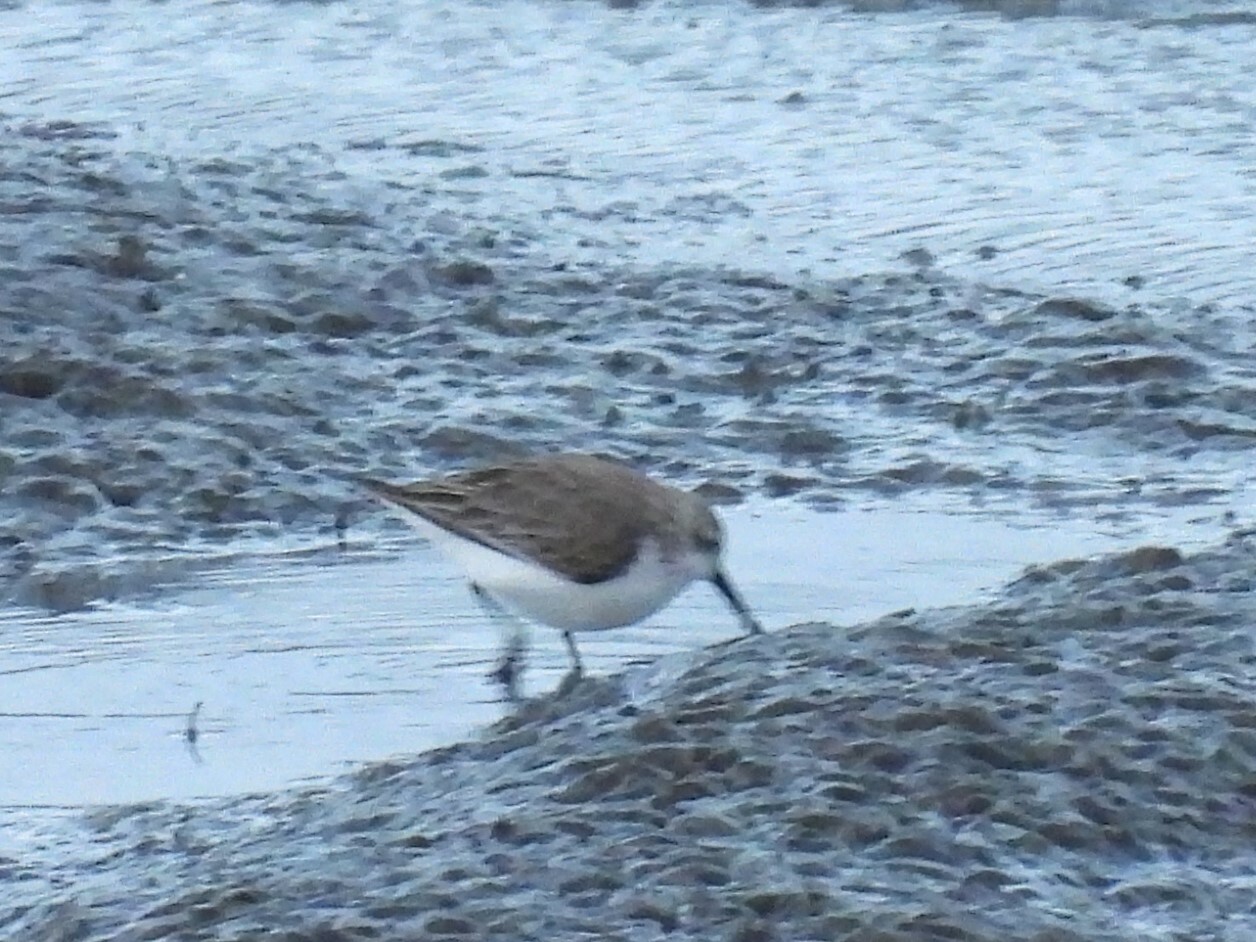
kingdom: Animalia
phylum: Chordata
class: Aves
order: Charadriiformes
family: Scolopacidae
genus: Calidris
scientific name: Calidris mauri
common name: Western sandpiper
